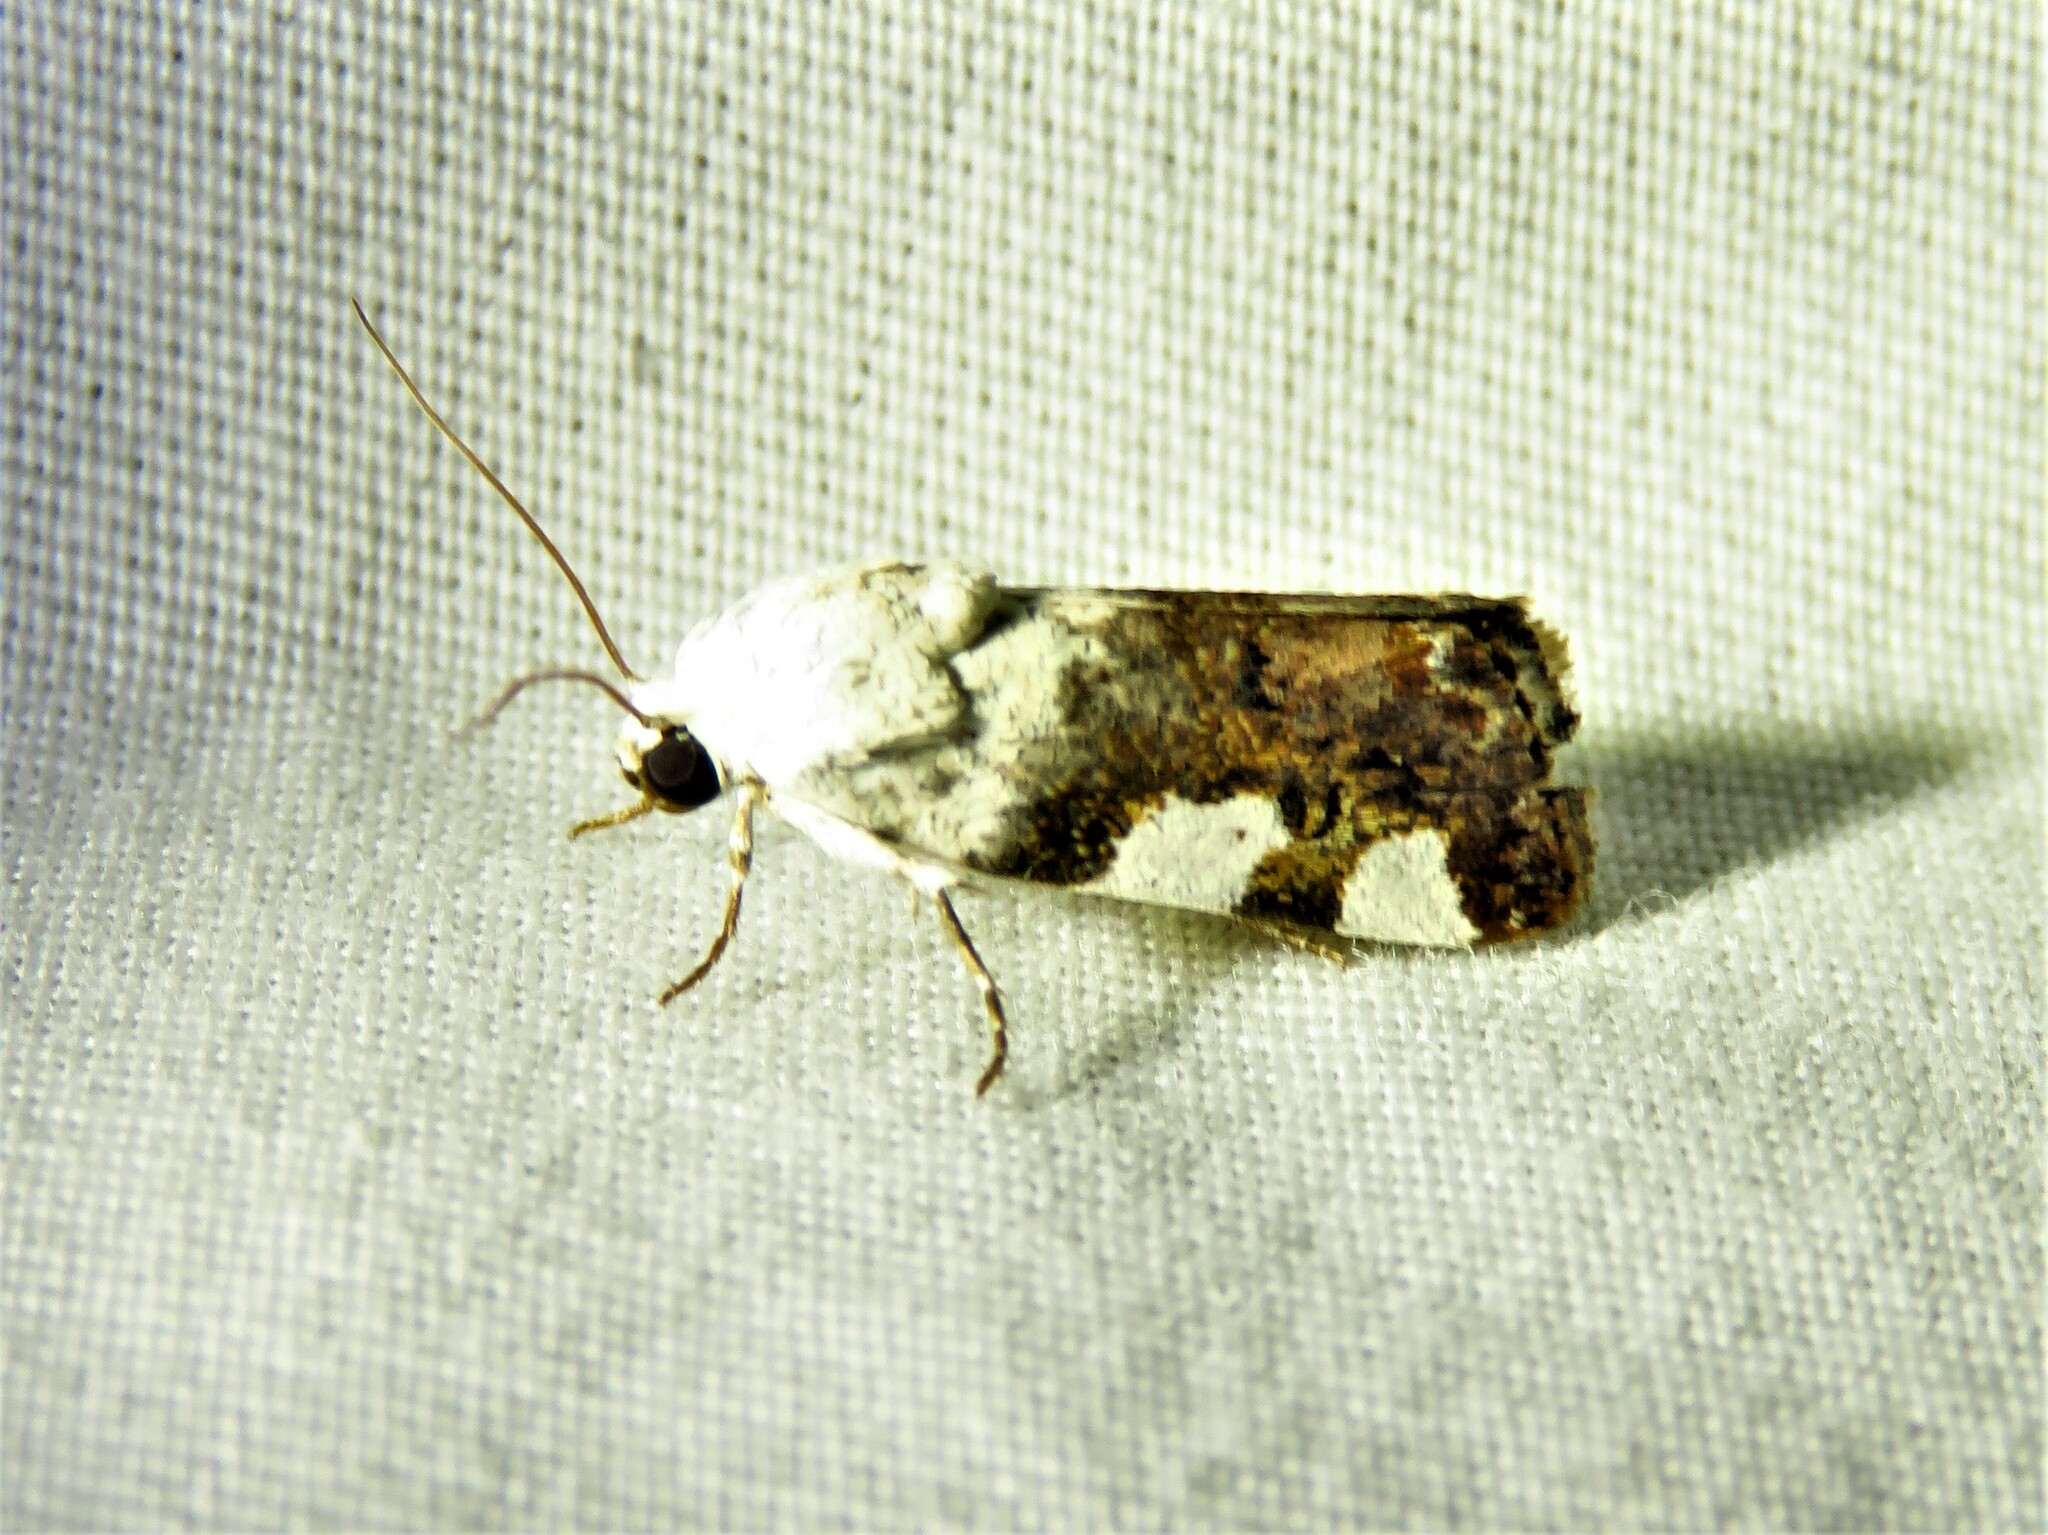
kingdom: Animalia
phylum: Arthropoda
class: Insecta
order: Lepidoptera
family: Noctuidae
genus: Acontia
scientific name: Acontia quadriplaga
